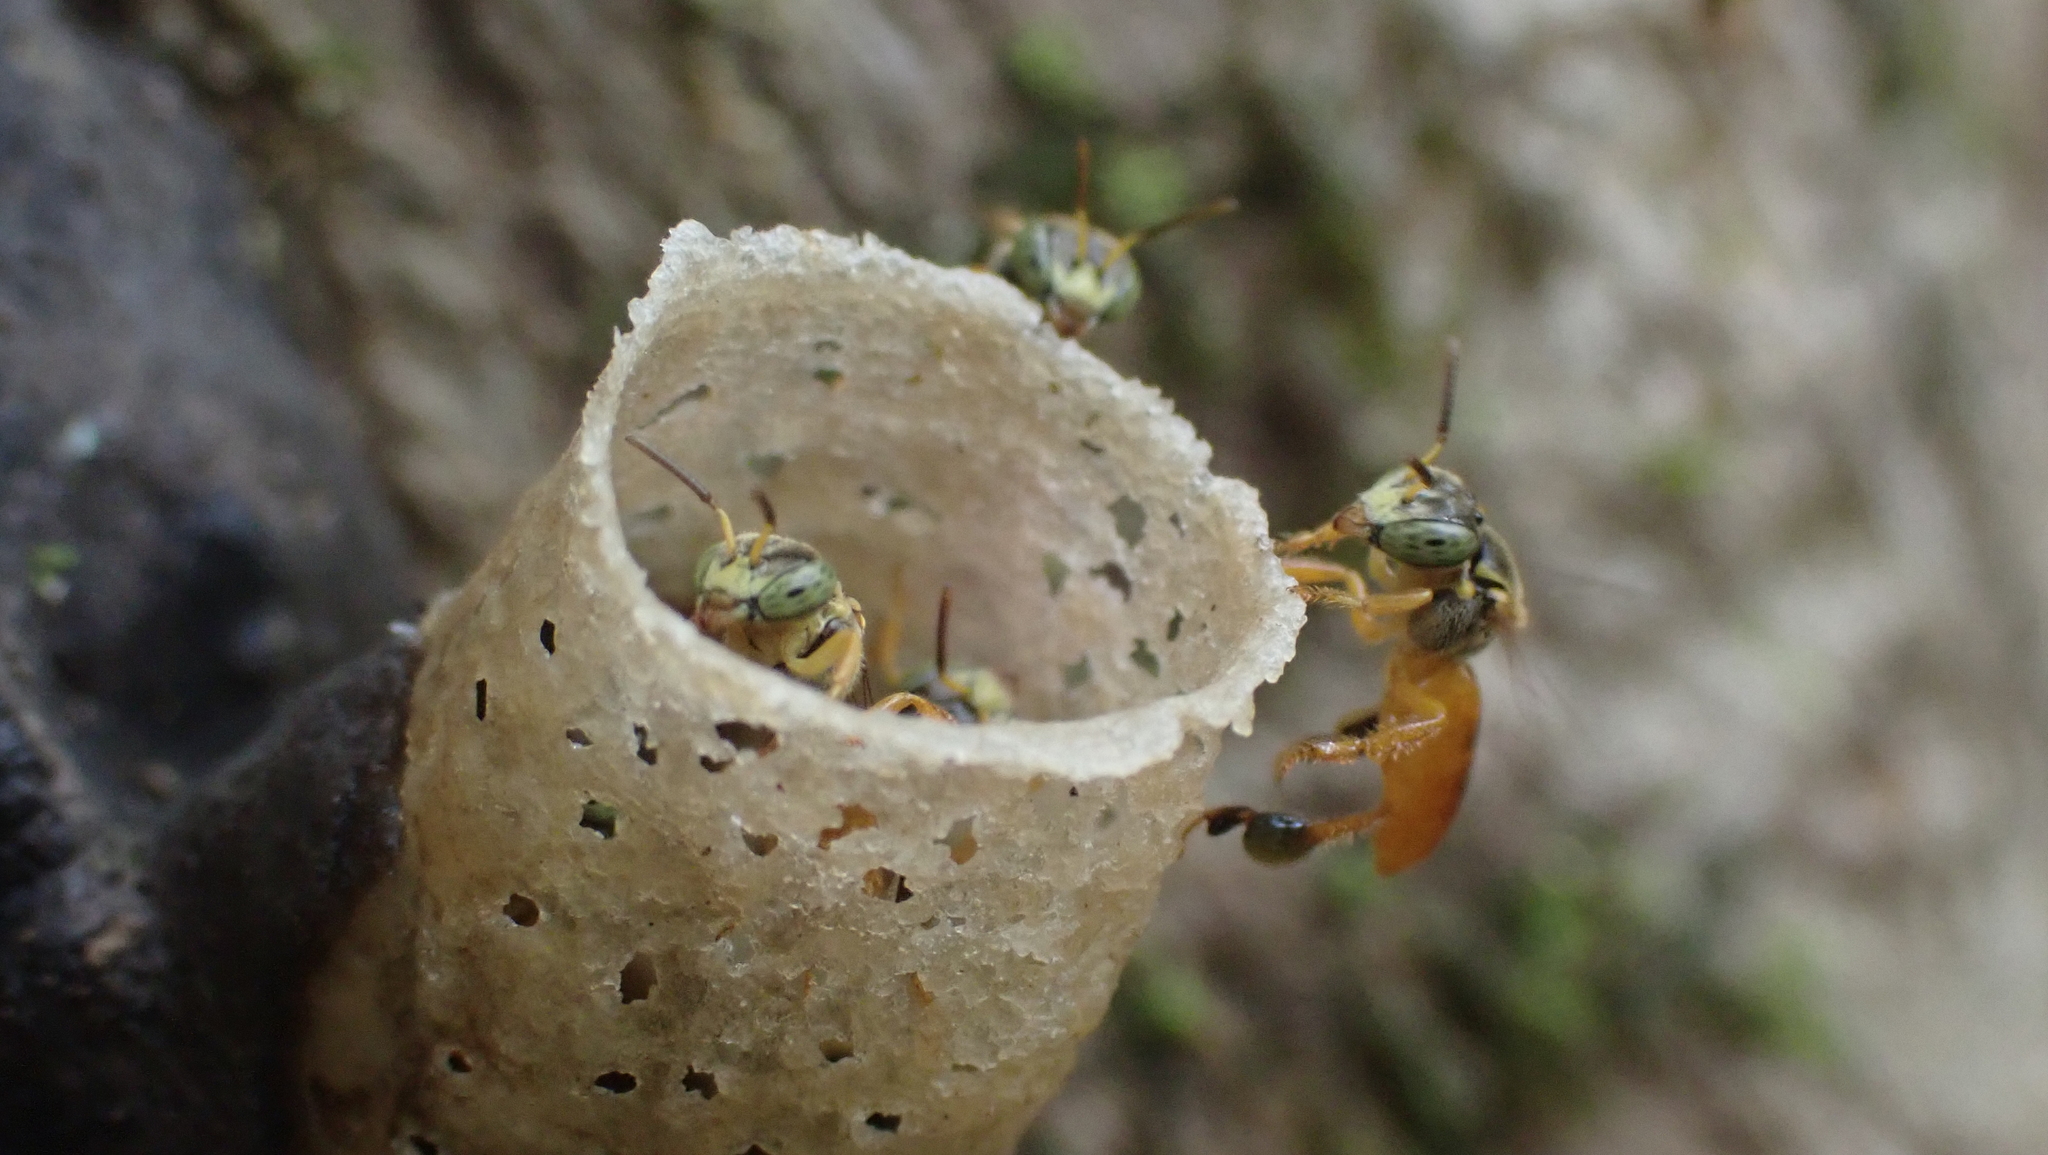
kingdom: Animalia
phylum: Arthropoda
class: Insecta
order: Hymenoptera
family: Apidae
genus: Tetragonisca
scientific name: Tetragonisca angustula
